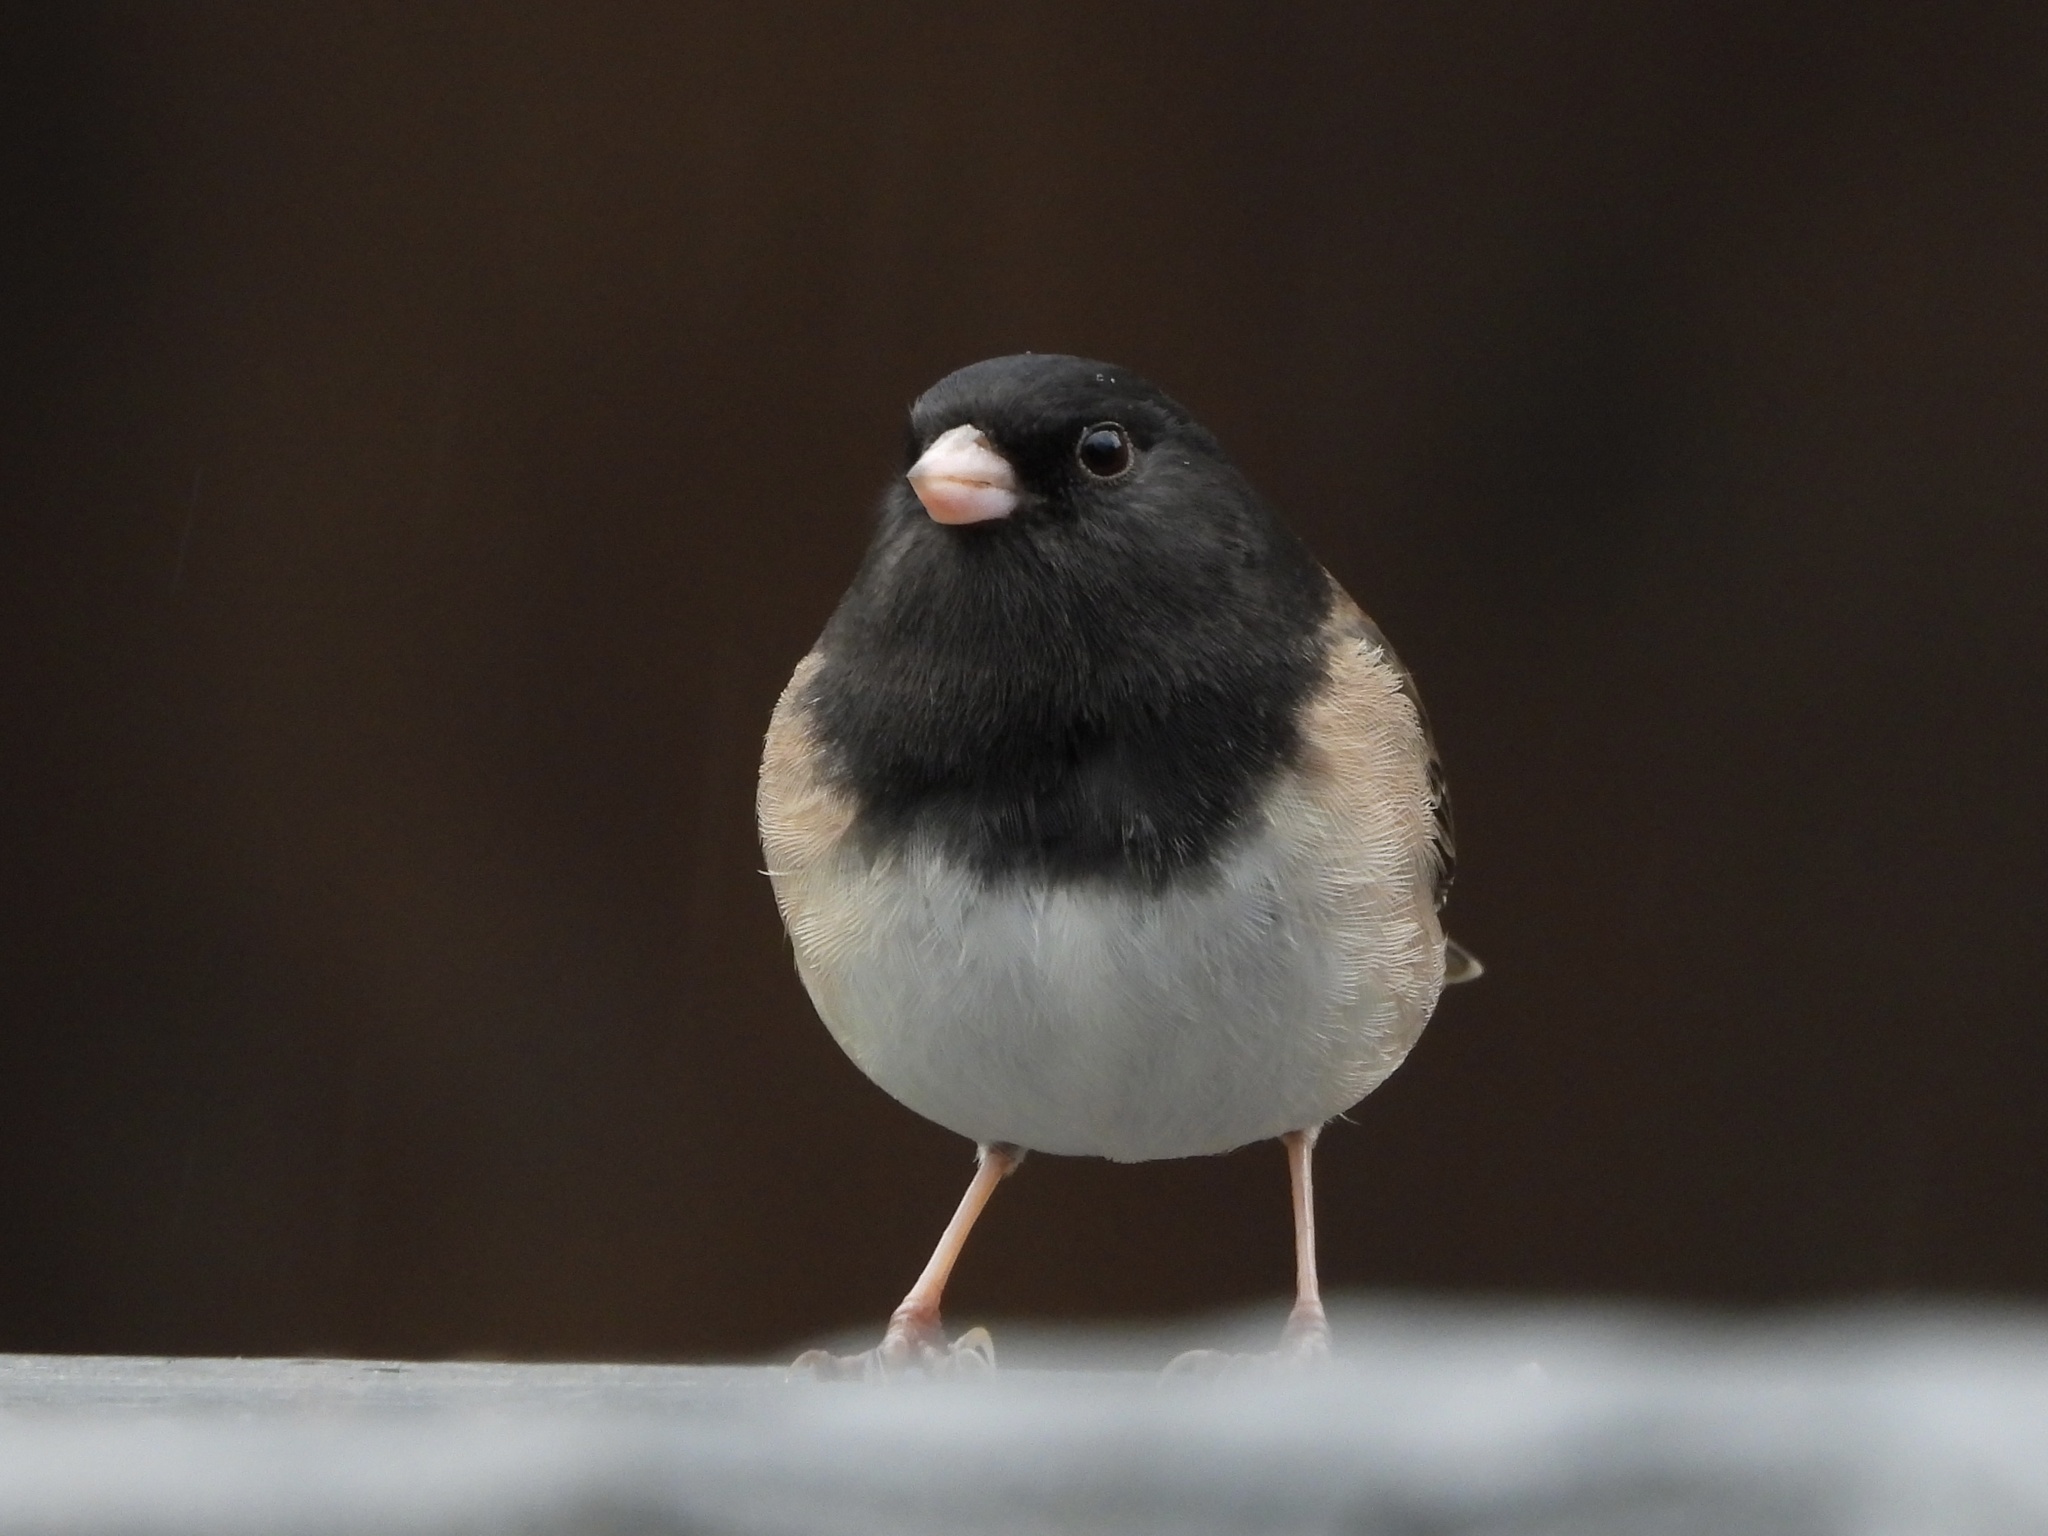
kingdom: Animalia
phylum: Chordata
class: Aves
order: Passeriformes
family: Passerellidae
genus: Junco
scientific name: Junco hyemalis
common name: Dark-eyed junco
